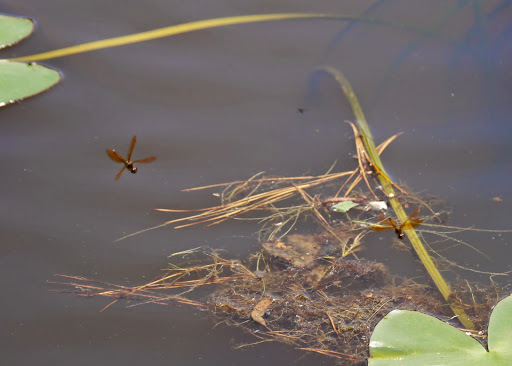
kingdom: Animalia
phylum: Arthropoda
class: Insecta
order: Odonata
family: Libellulidae
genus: Perithemis
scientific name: Perithemis tenera
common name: Eastern amberwing
